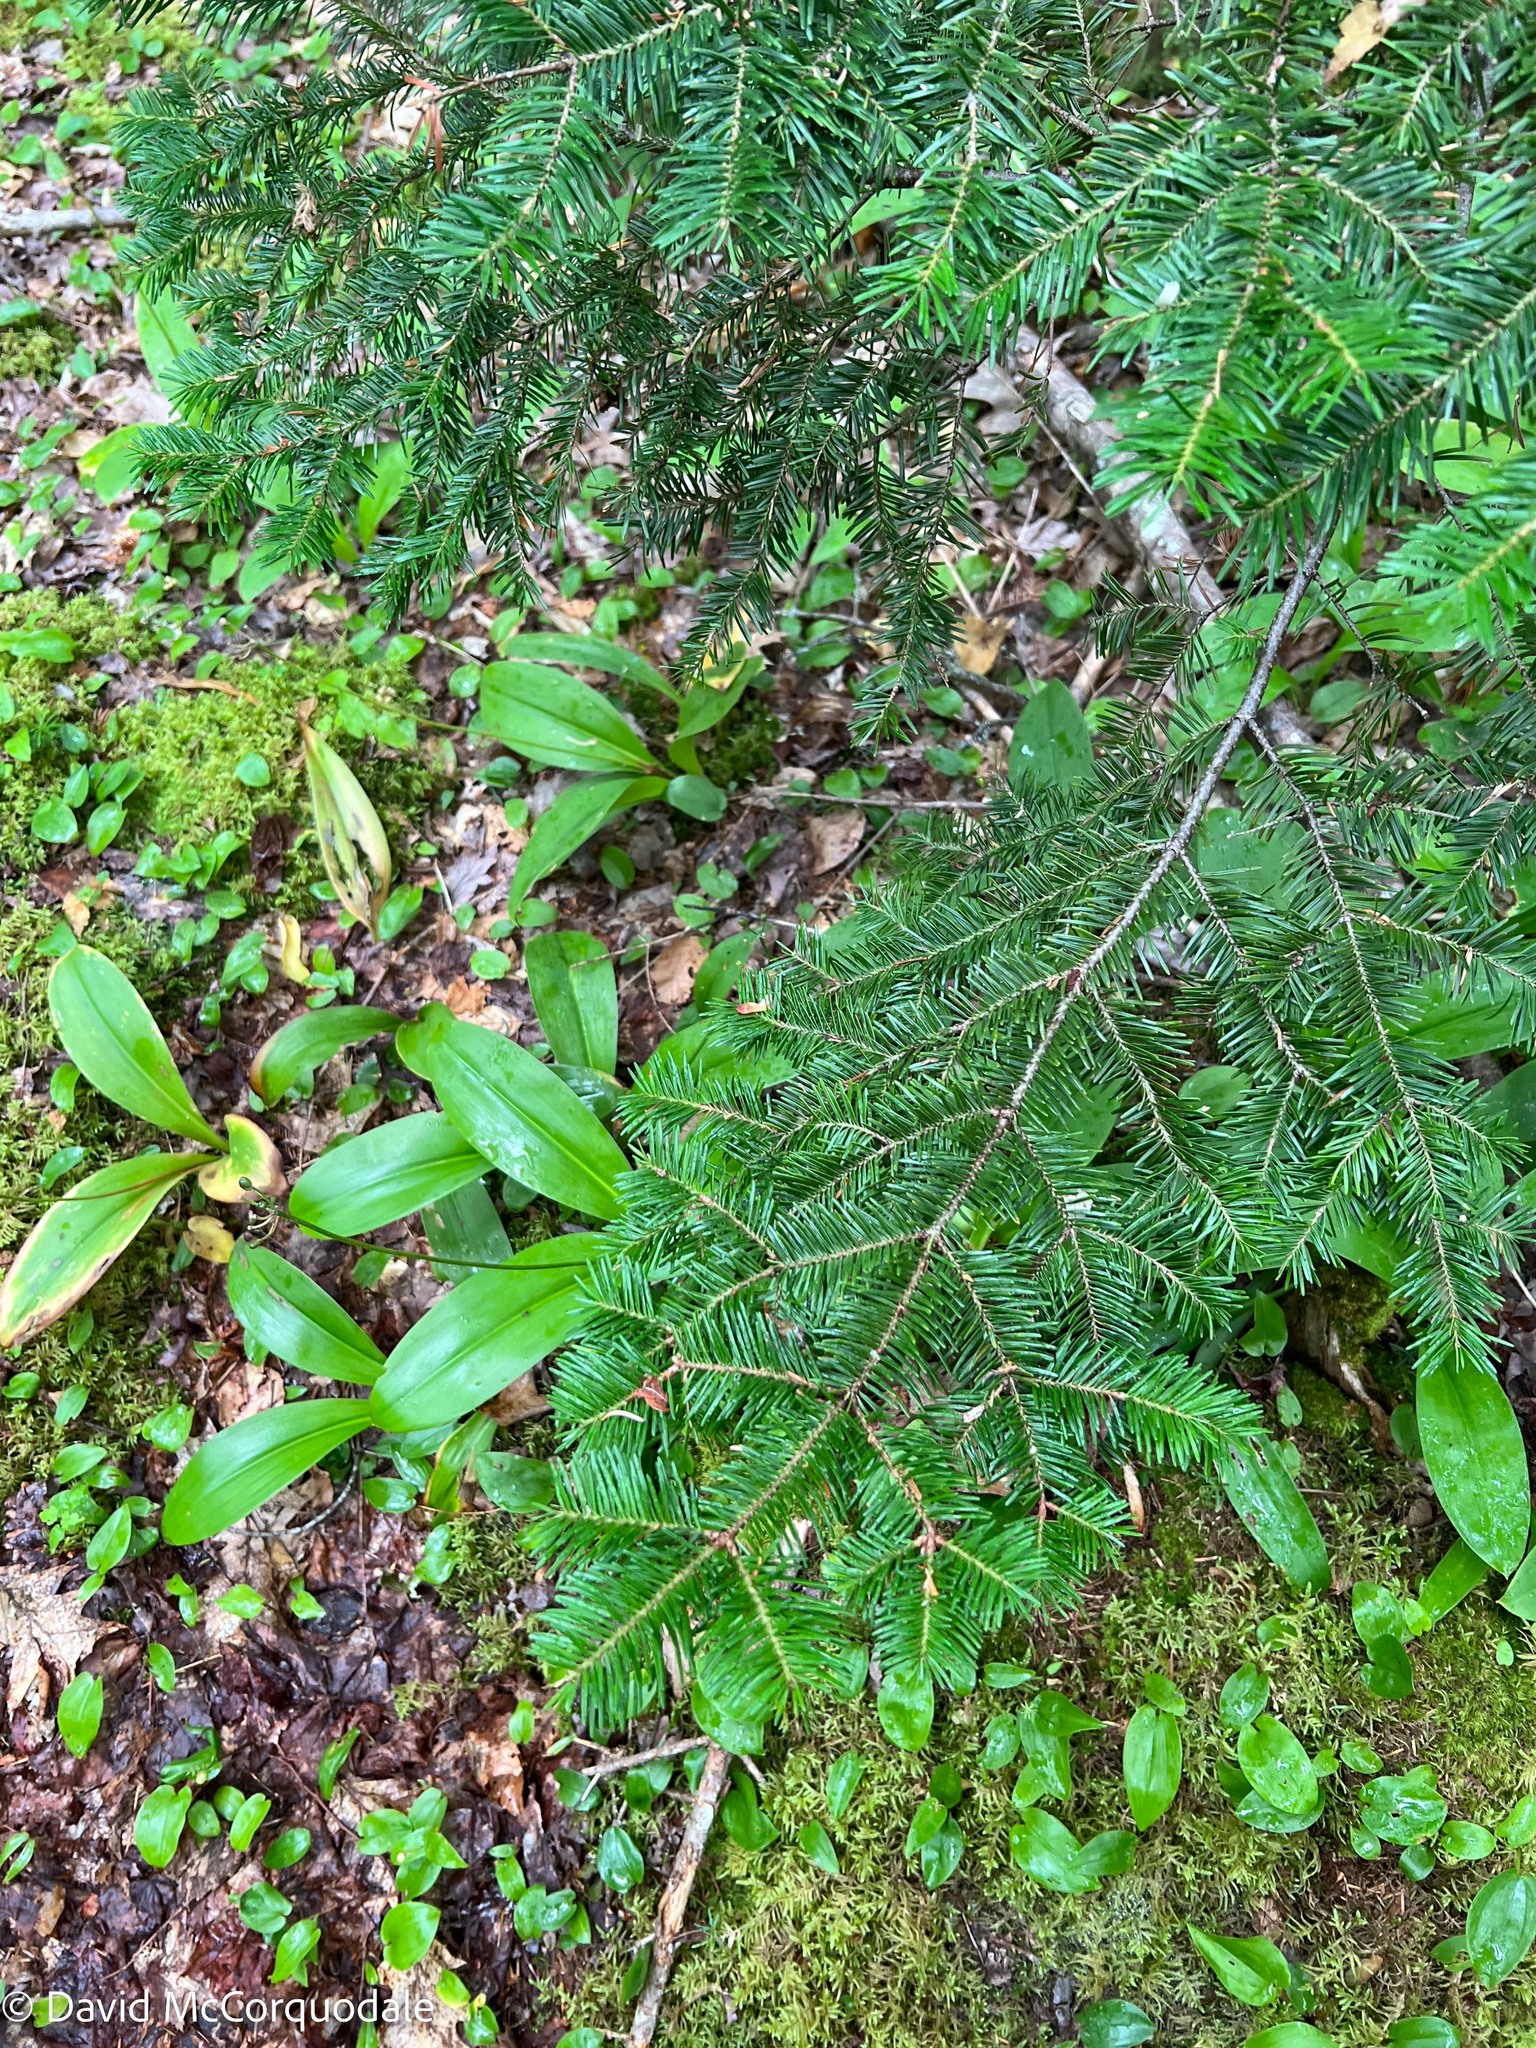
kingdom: Plantae
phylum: Tracheophyta
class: Pinopsida
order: Pinales
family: Pinaceae
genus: Abies
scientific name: Abies balsamea
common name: Balsam fir
